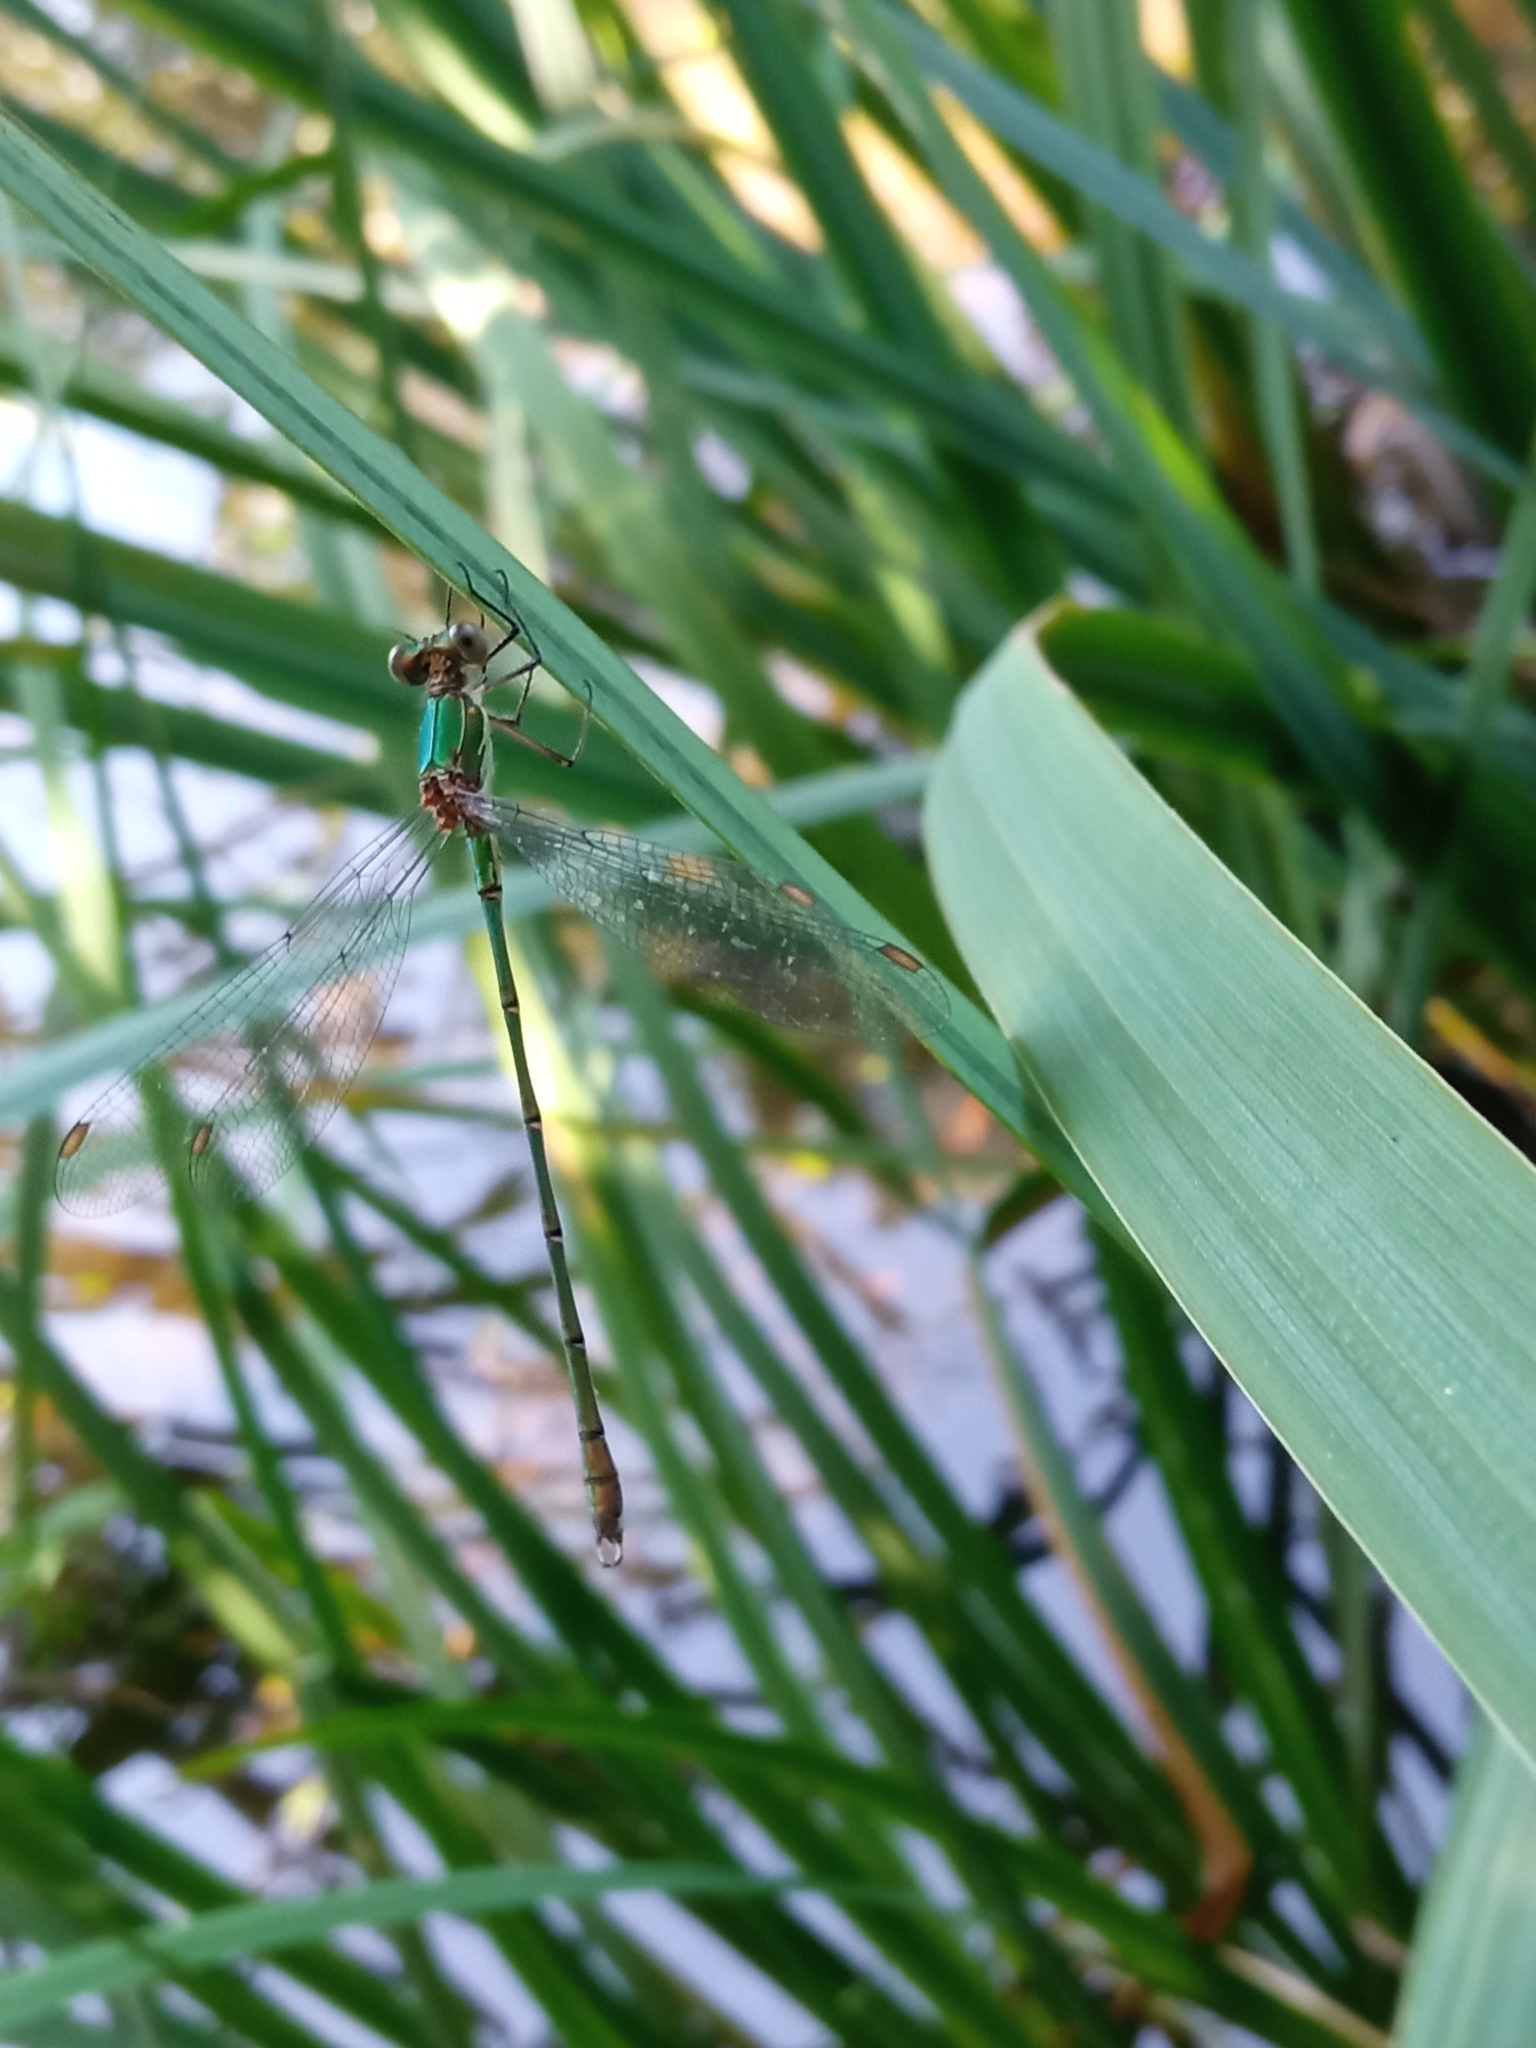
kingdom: Animalia
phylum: Arthropoda
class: Insecta
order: Odonata
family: Lestidae
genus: Chalcolestes
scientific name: Chalcolestes viridis
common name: Green emerald damselfly
